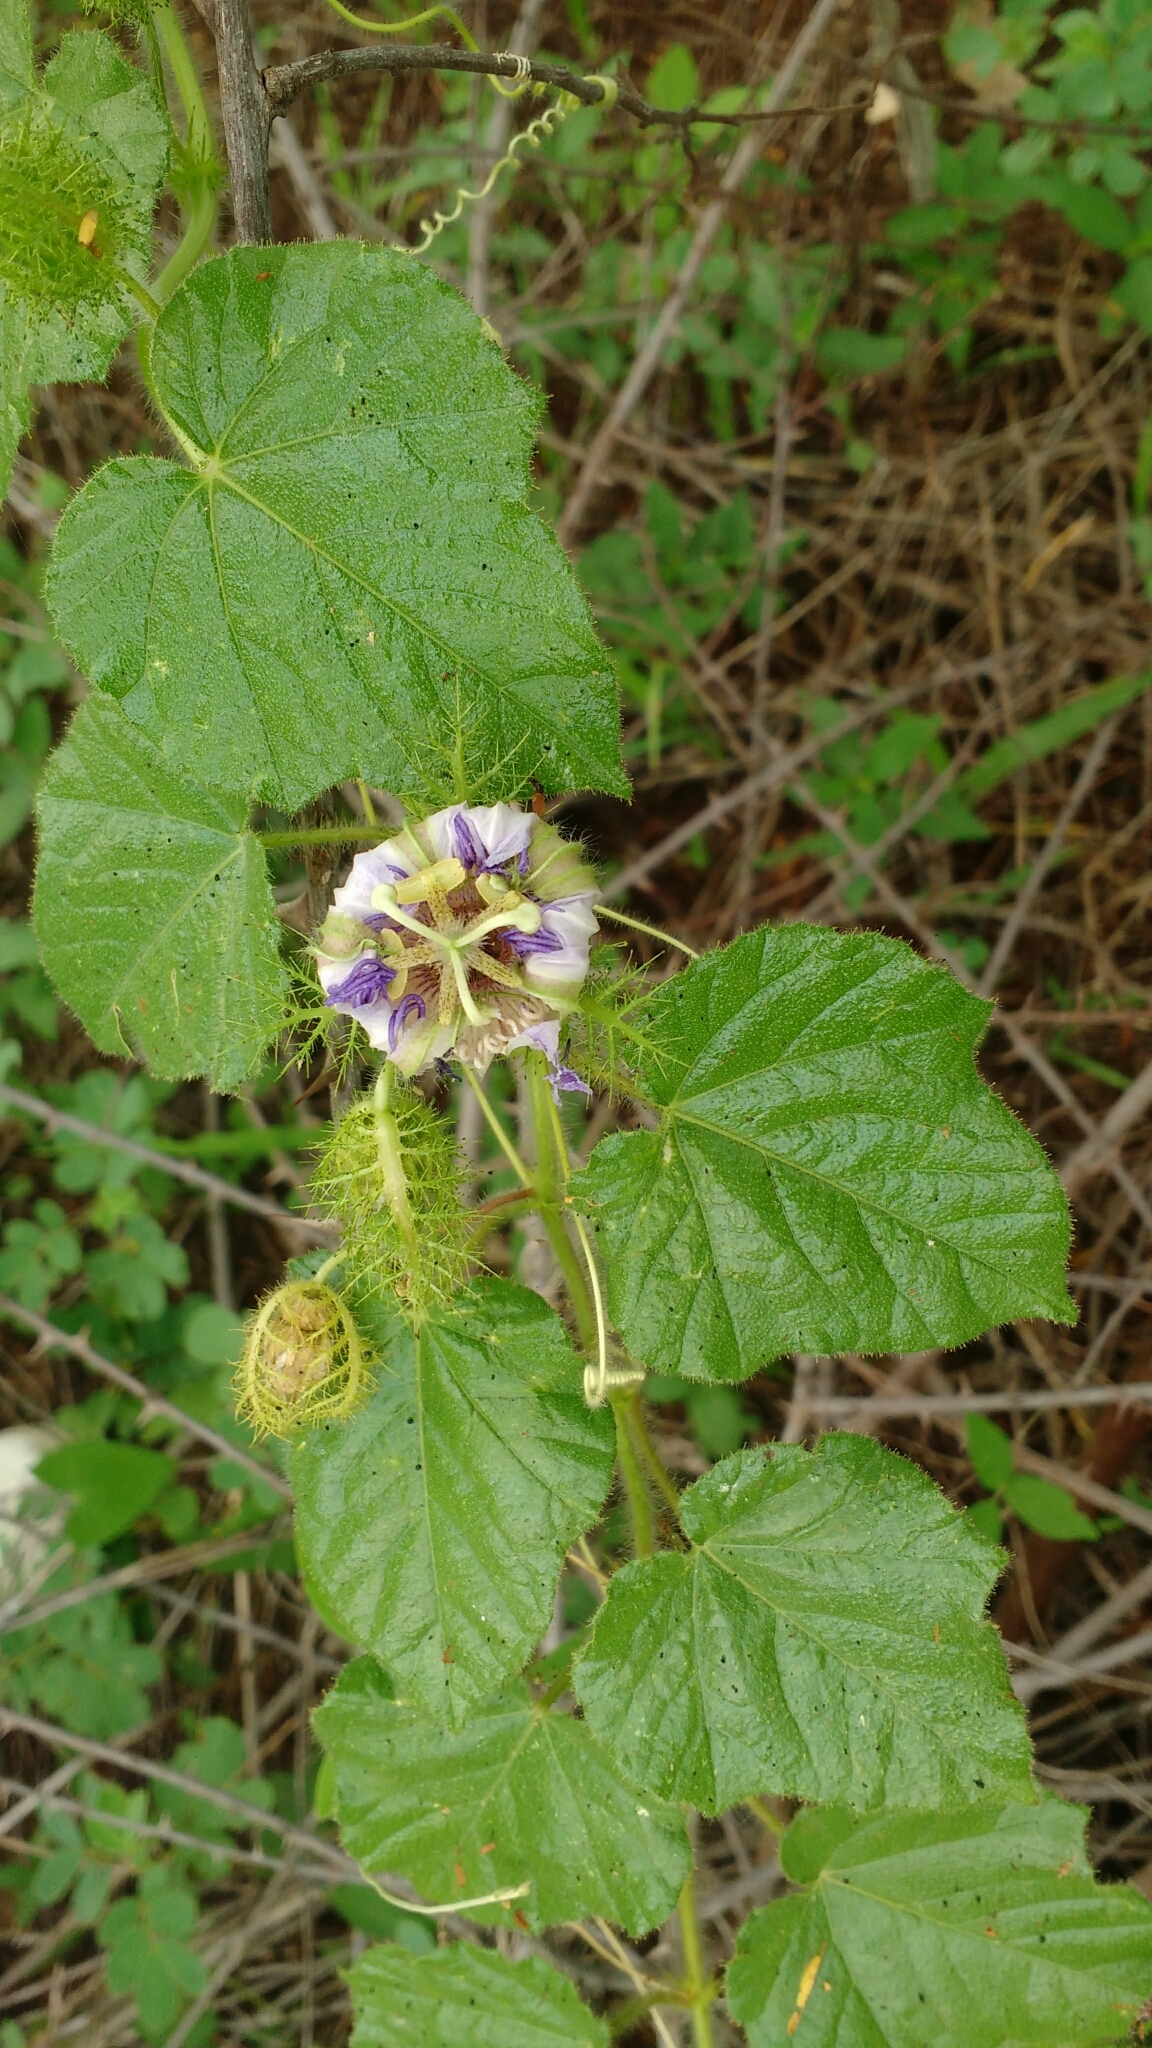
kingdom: Plantae
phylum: Tracheophyta
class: Magnoliopsida
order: Malpighiales
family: Passifloraceae
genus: Passiflora
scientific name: Passiflora foetida
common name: Fetid passionflower
